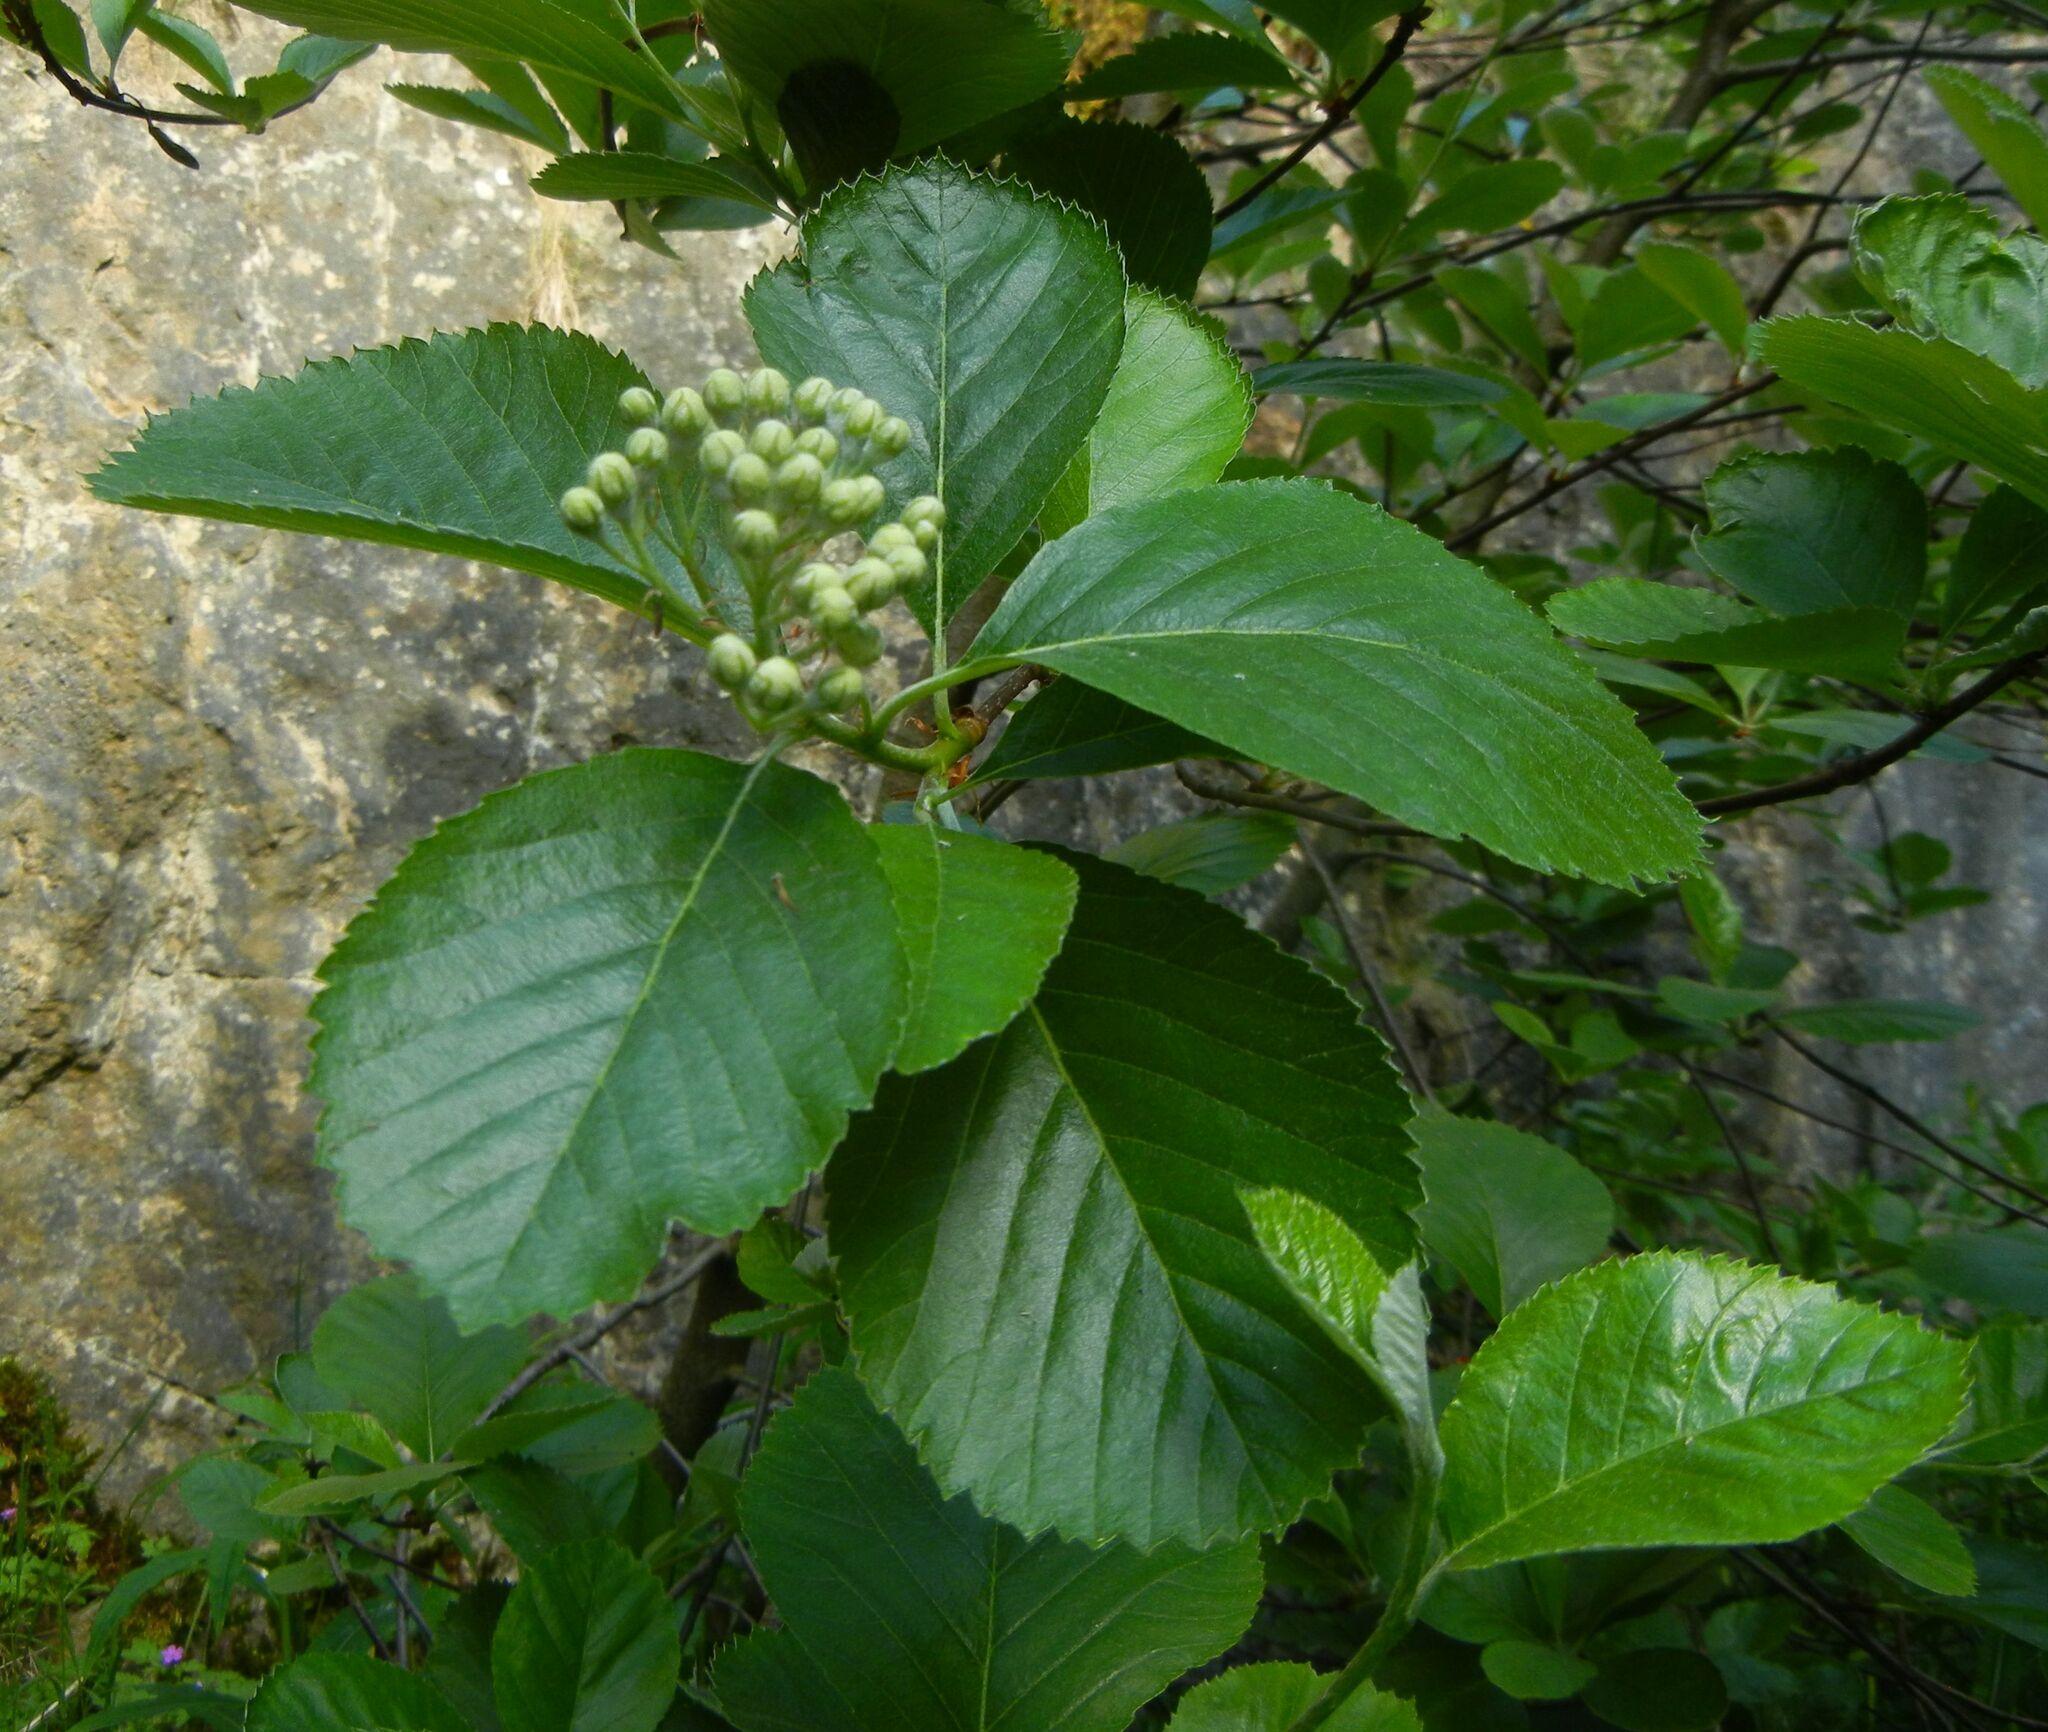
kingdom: Plantae
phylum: Tracheophyta
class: Magnoliopsida
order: Rosales
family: Rosaceae
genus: Aria
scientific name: Aria edulis
